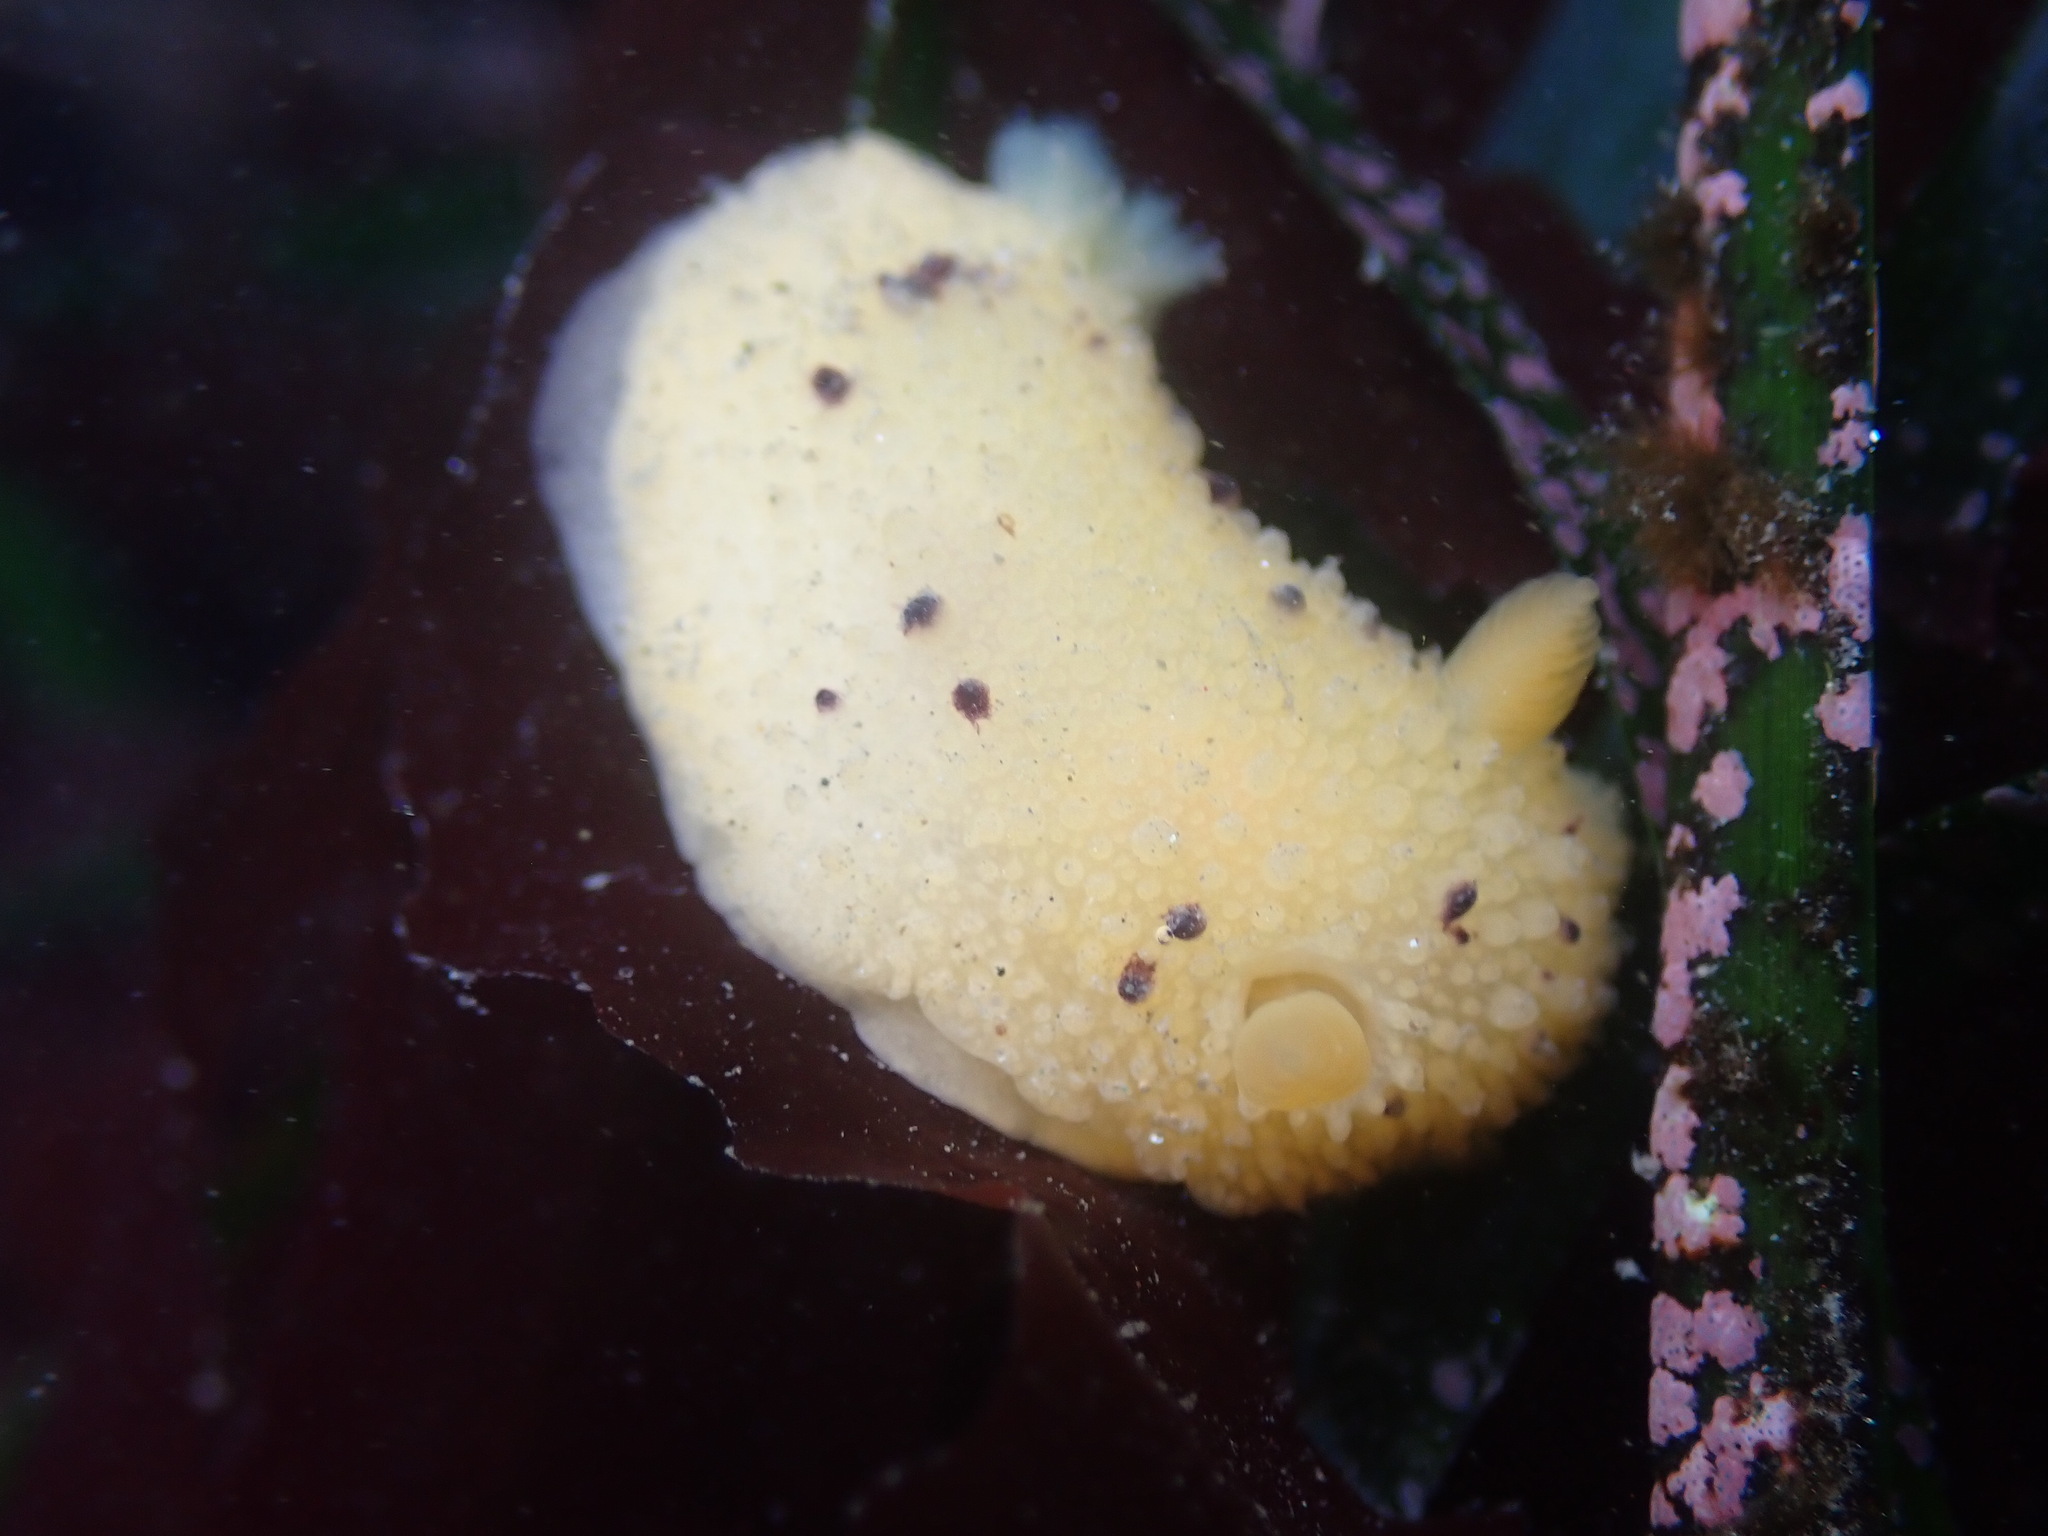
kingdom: Animalia
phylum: Mollusca
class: Gastropoda
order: Nudibranchia
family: Dorididae
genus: Doris
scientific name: Doris montereyensis
